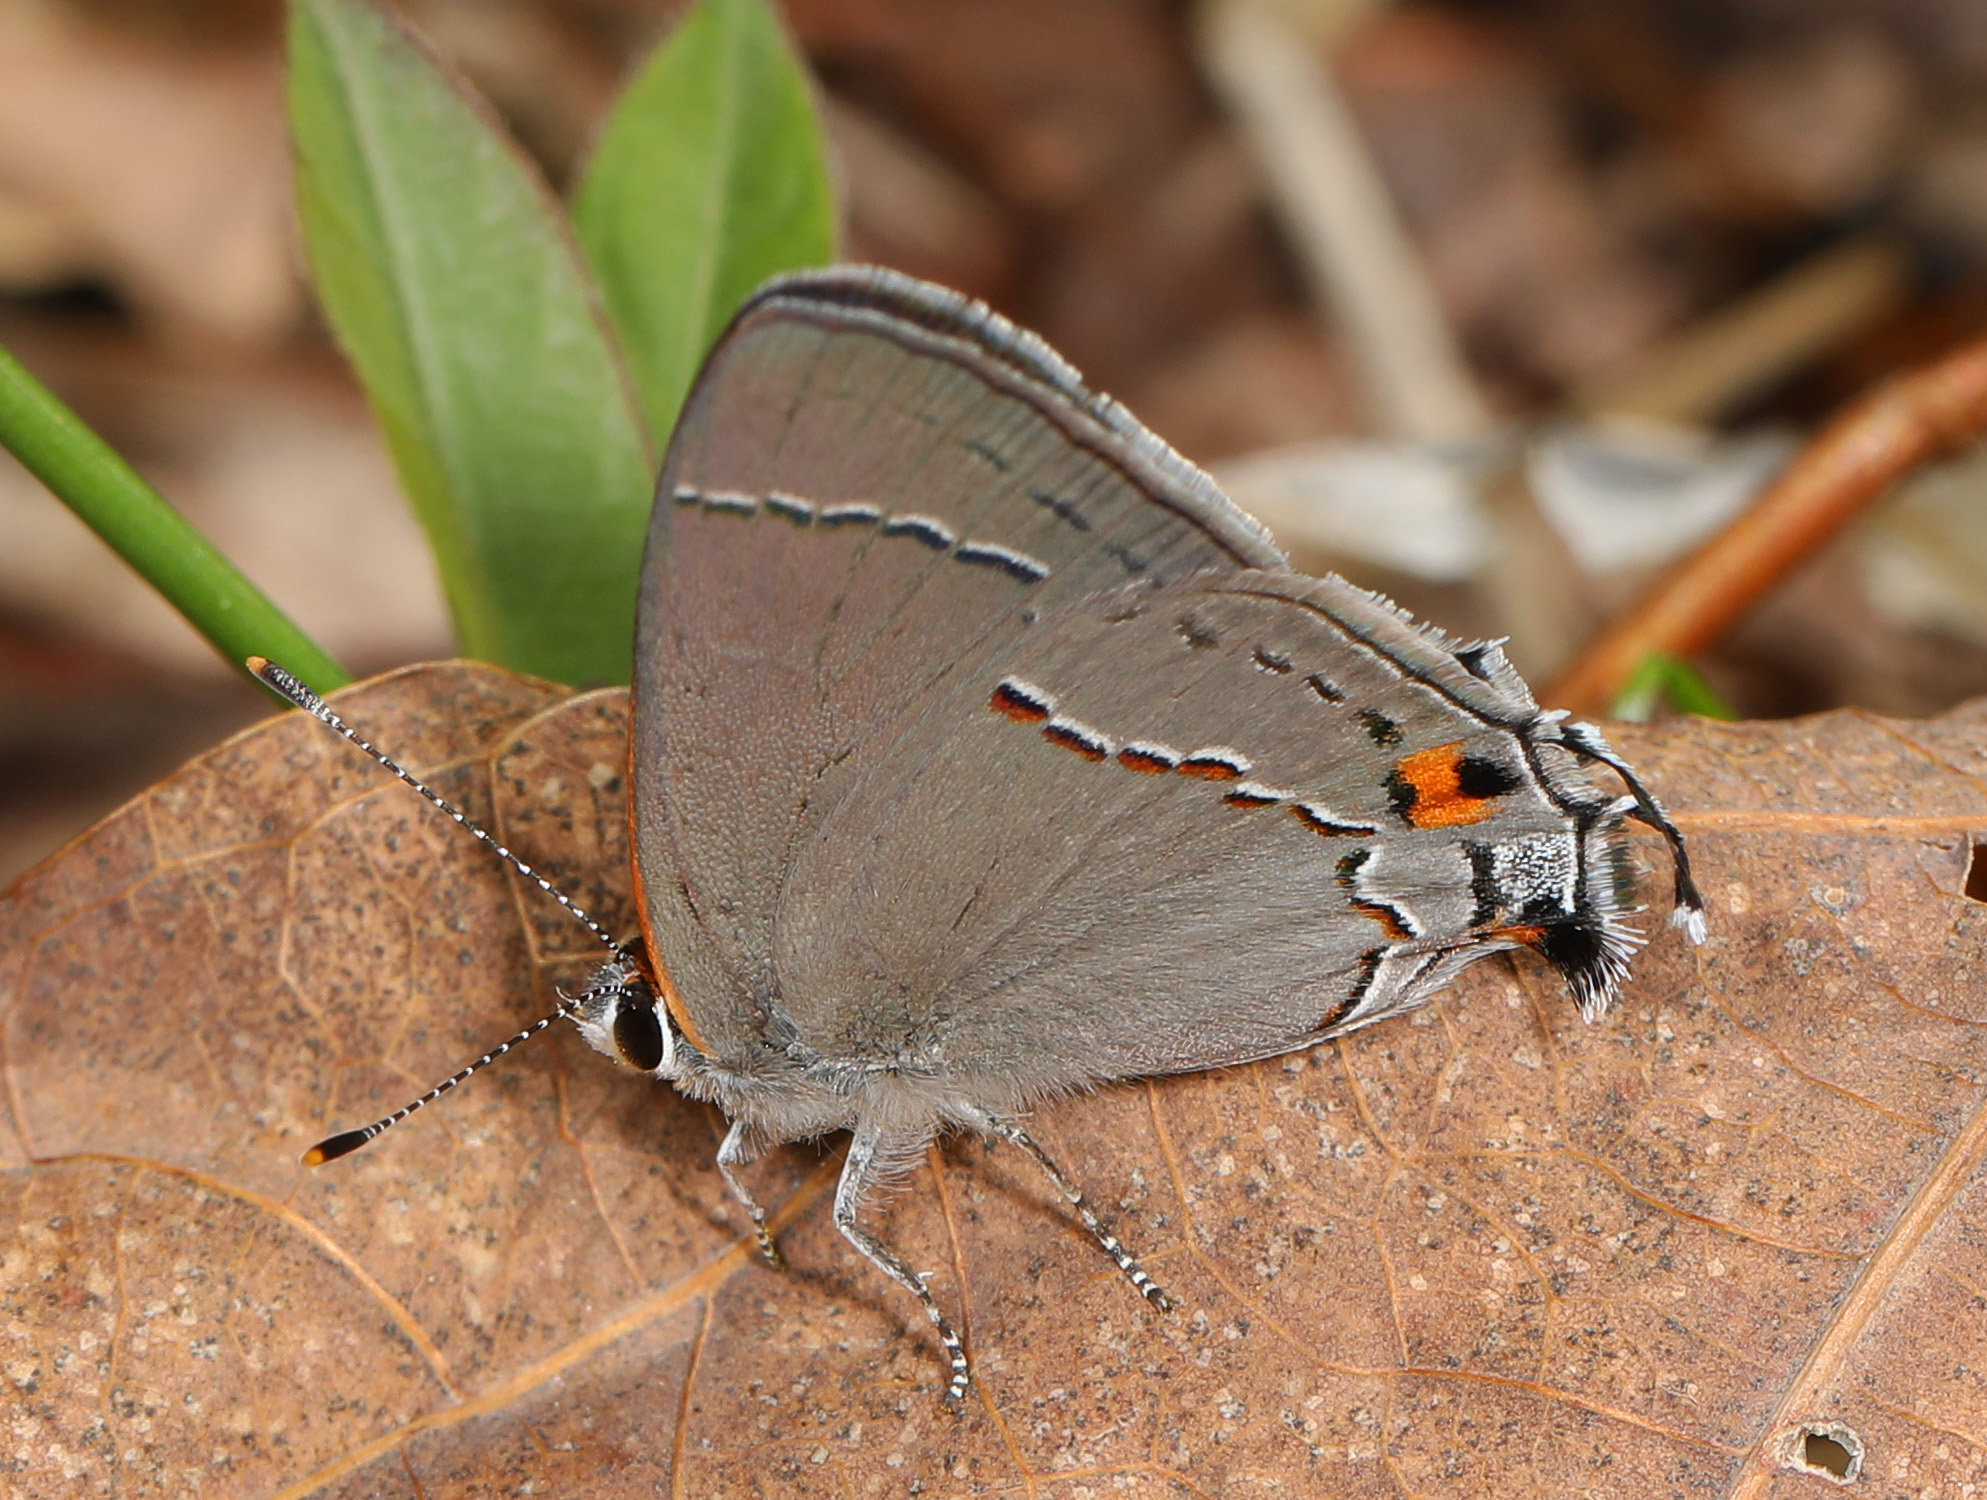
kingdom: Animalia
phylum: Arthropoda
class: Insecta
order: Lepidoptera
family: Lycaenidae
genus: Strymon
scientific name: Strymon melinus
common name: Gray hairstreak
